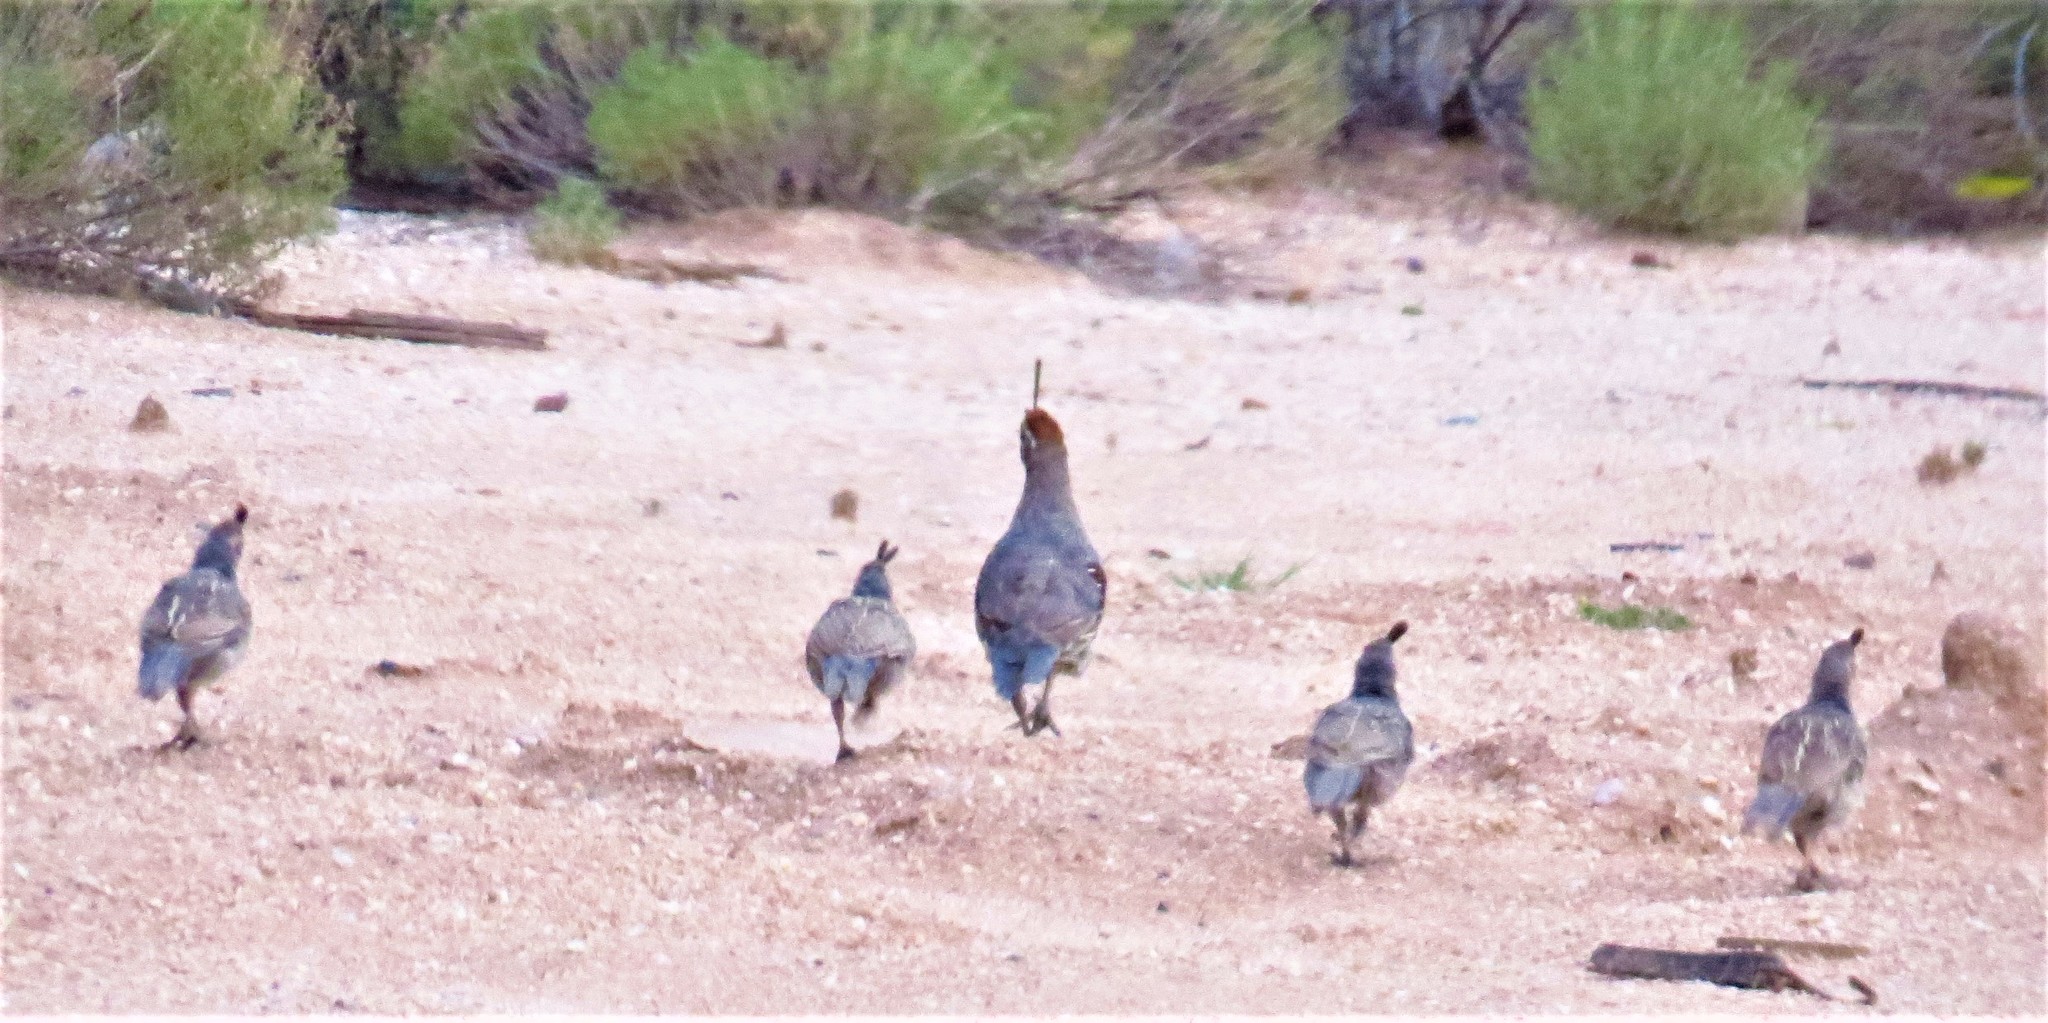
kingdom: Animalia
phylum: Chordata
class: Aves
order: Galliformes
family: Odontophoridae
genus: Callipepla
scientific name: Callipepla gambelii
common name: Gambel's quail
